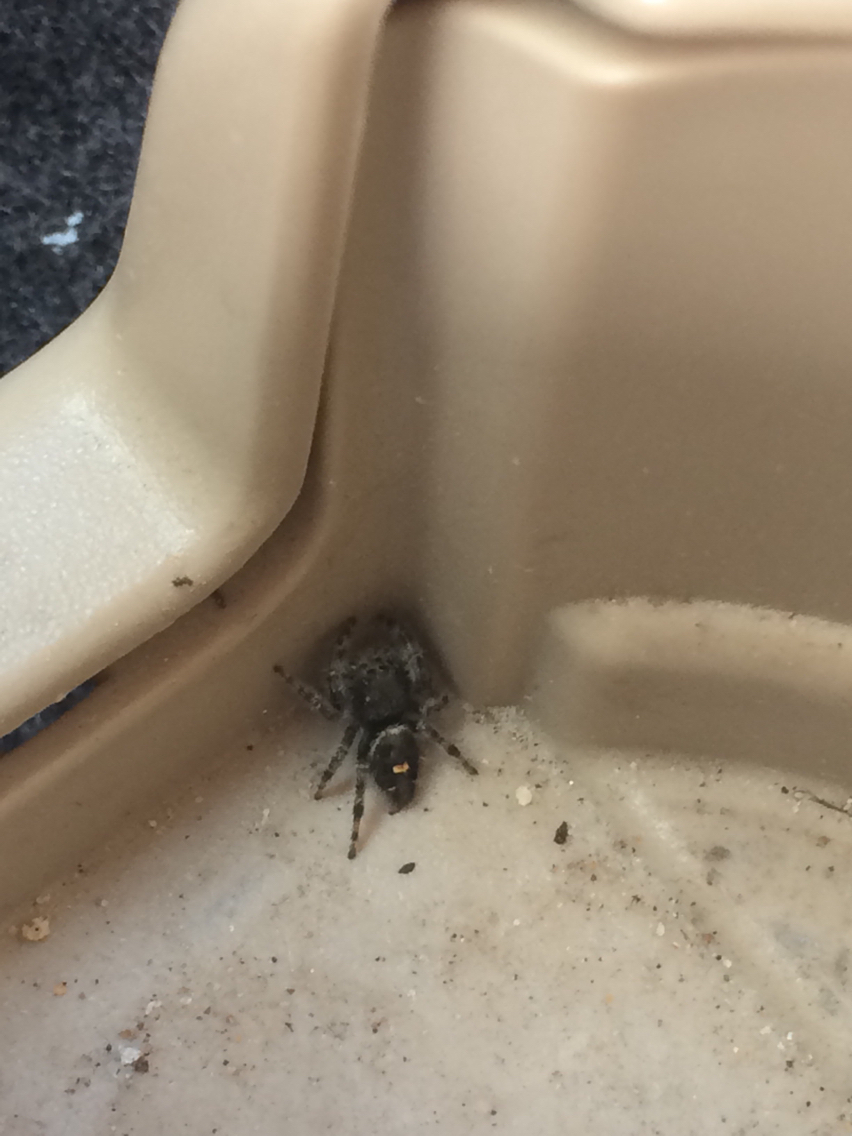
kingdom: Animalia
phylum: Arthropoda
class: Arachnida
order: Araneae
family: Salticidae
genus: Phidippus
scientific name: Phidippus audax
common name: Bold jumper
